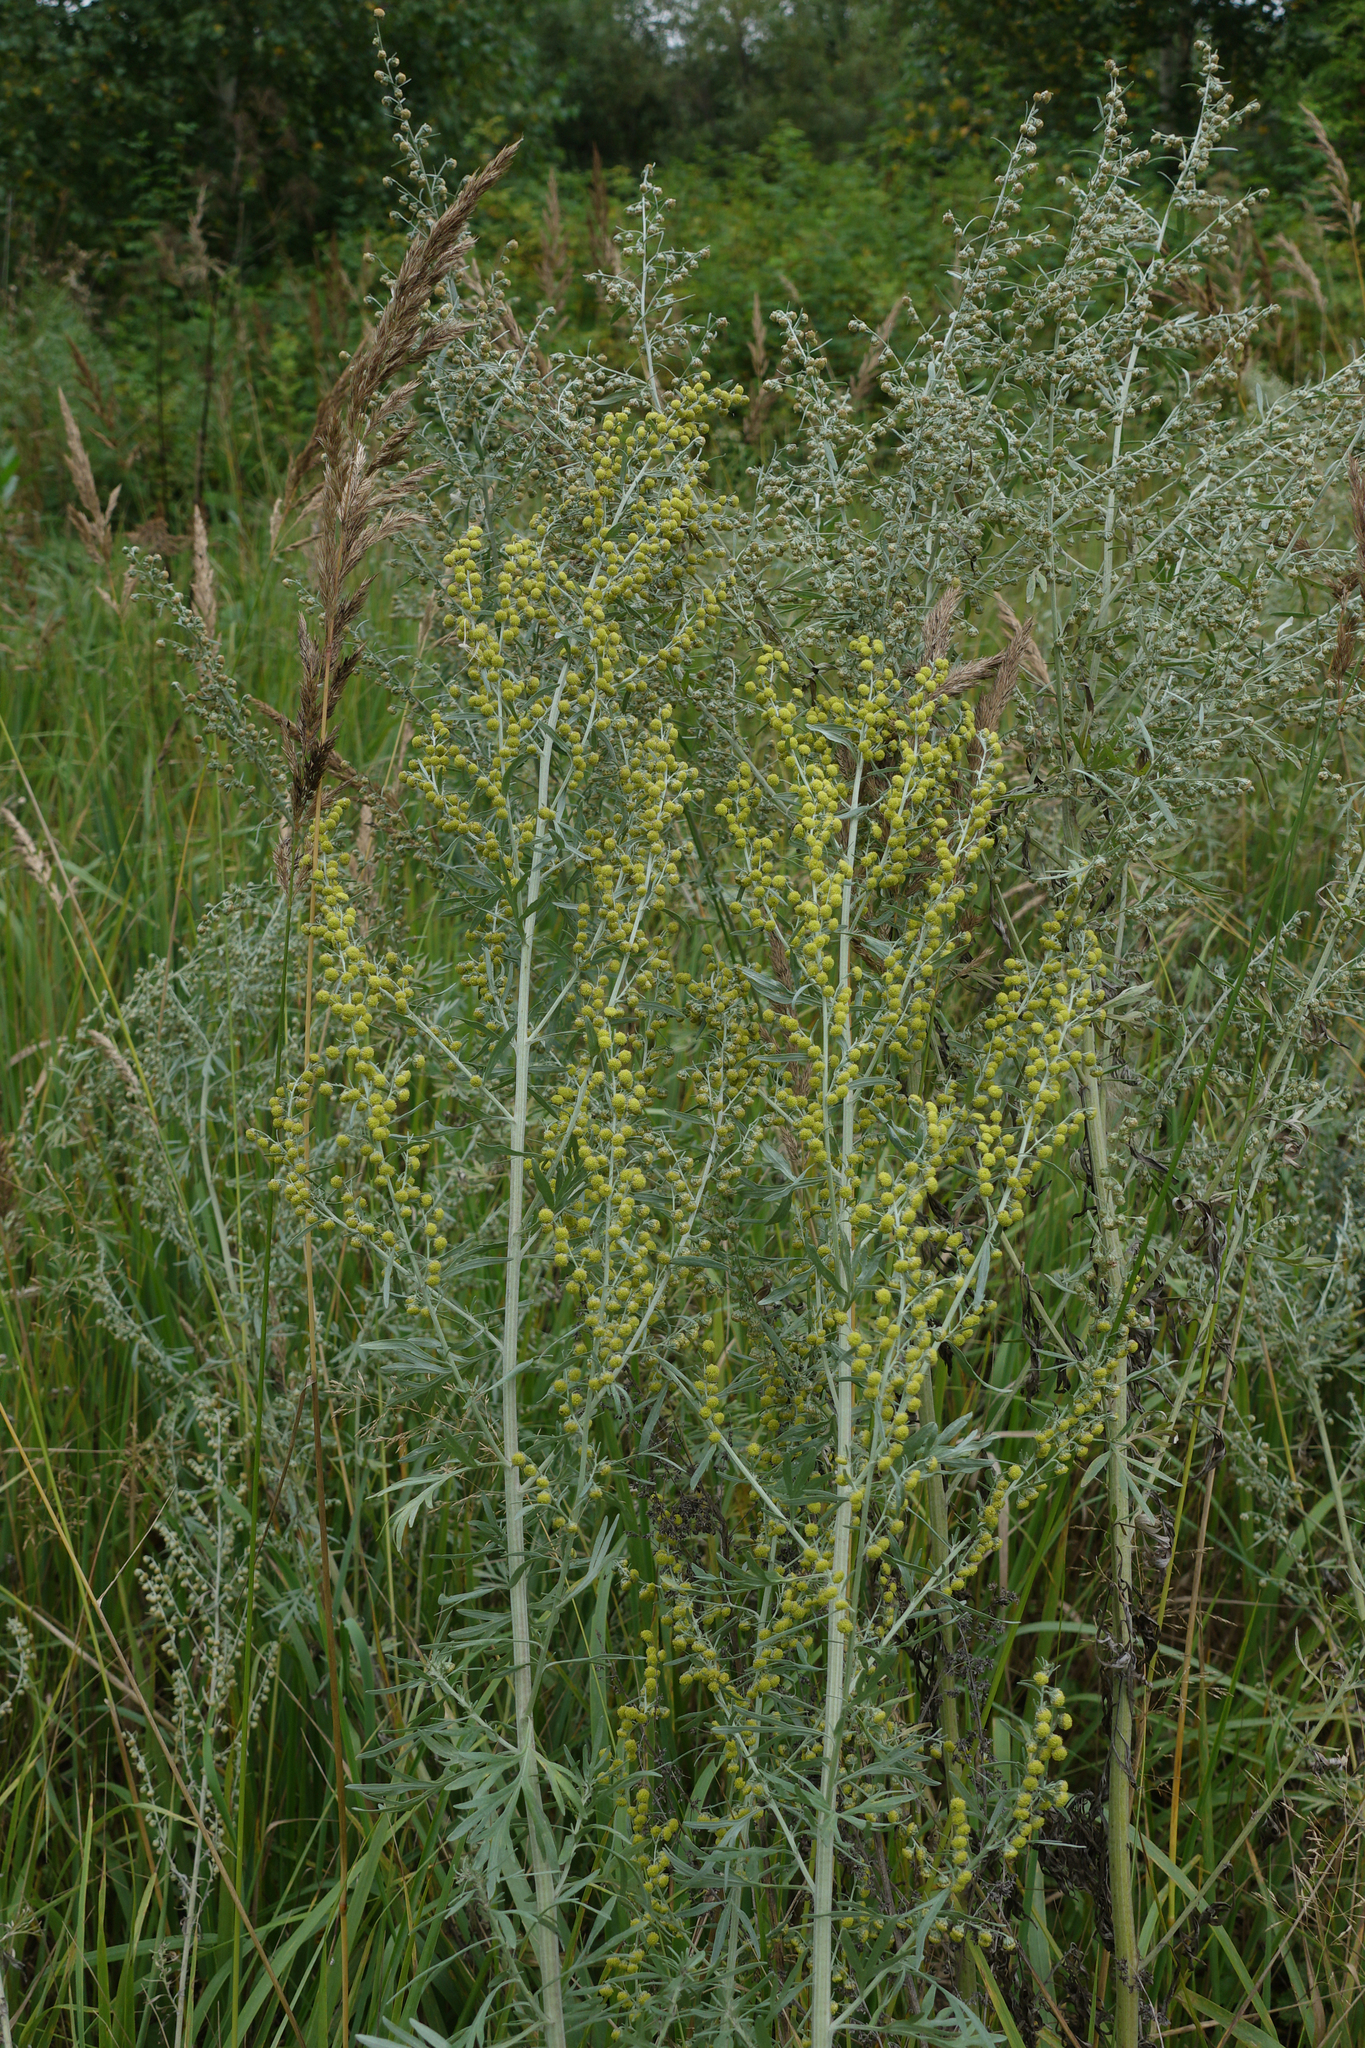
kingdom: Plantae
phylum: Tracheophyta
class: Magnoliopsida
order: Asterales
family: Asteraceae
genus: Artemisia
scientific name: Artemisia absinthium
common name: Wormwood
